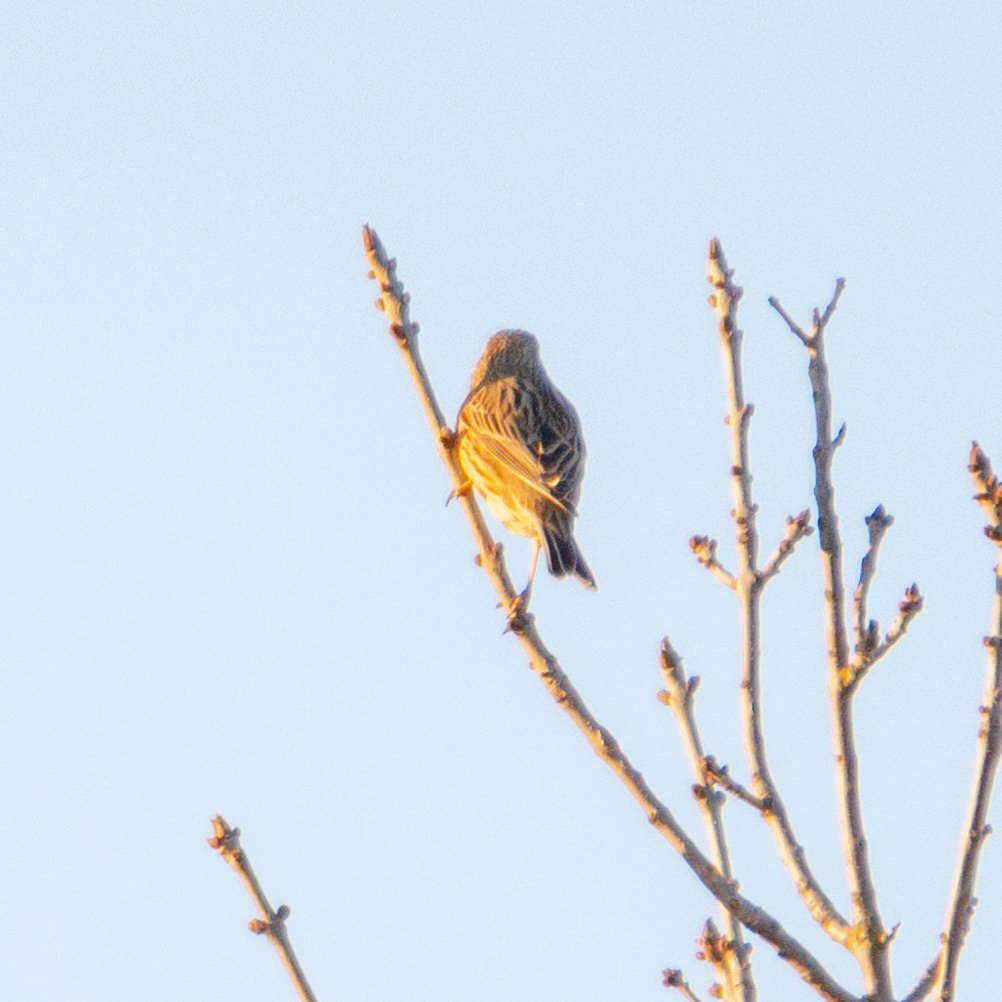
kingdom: Animalia
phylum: Chordata
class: Aves
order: Passeriformes
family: Emberizidae
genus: Emberiza
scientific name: Emberiza calandra
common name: Corn bunting
